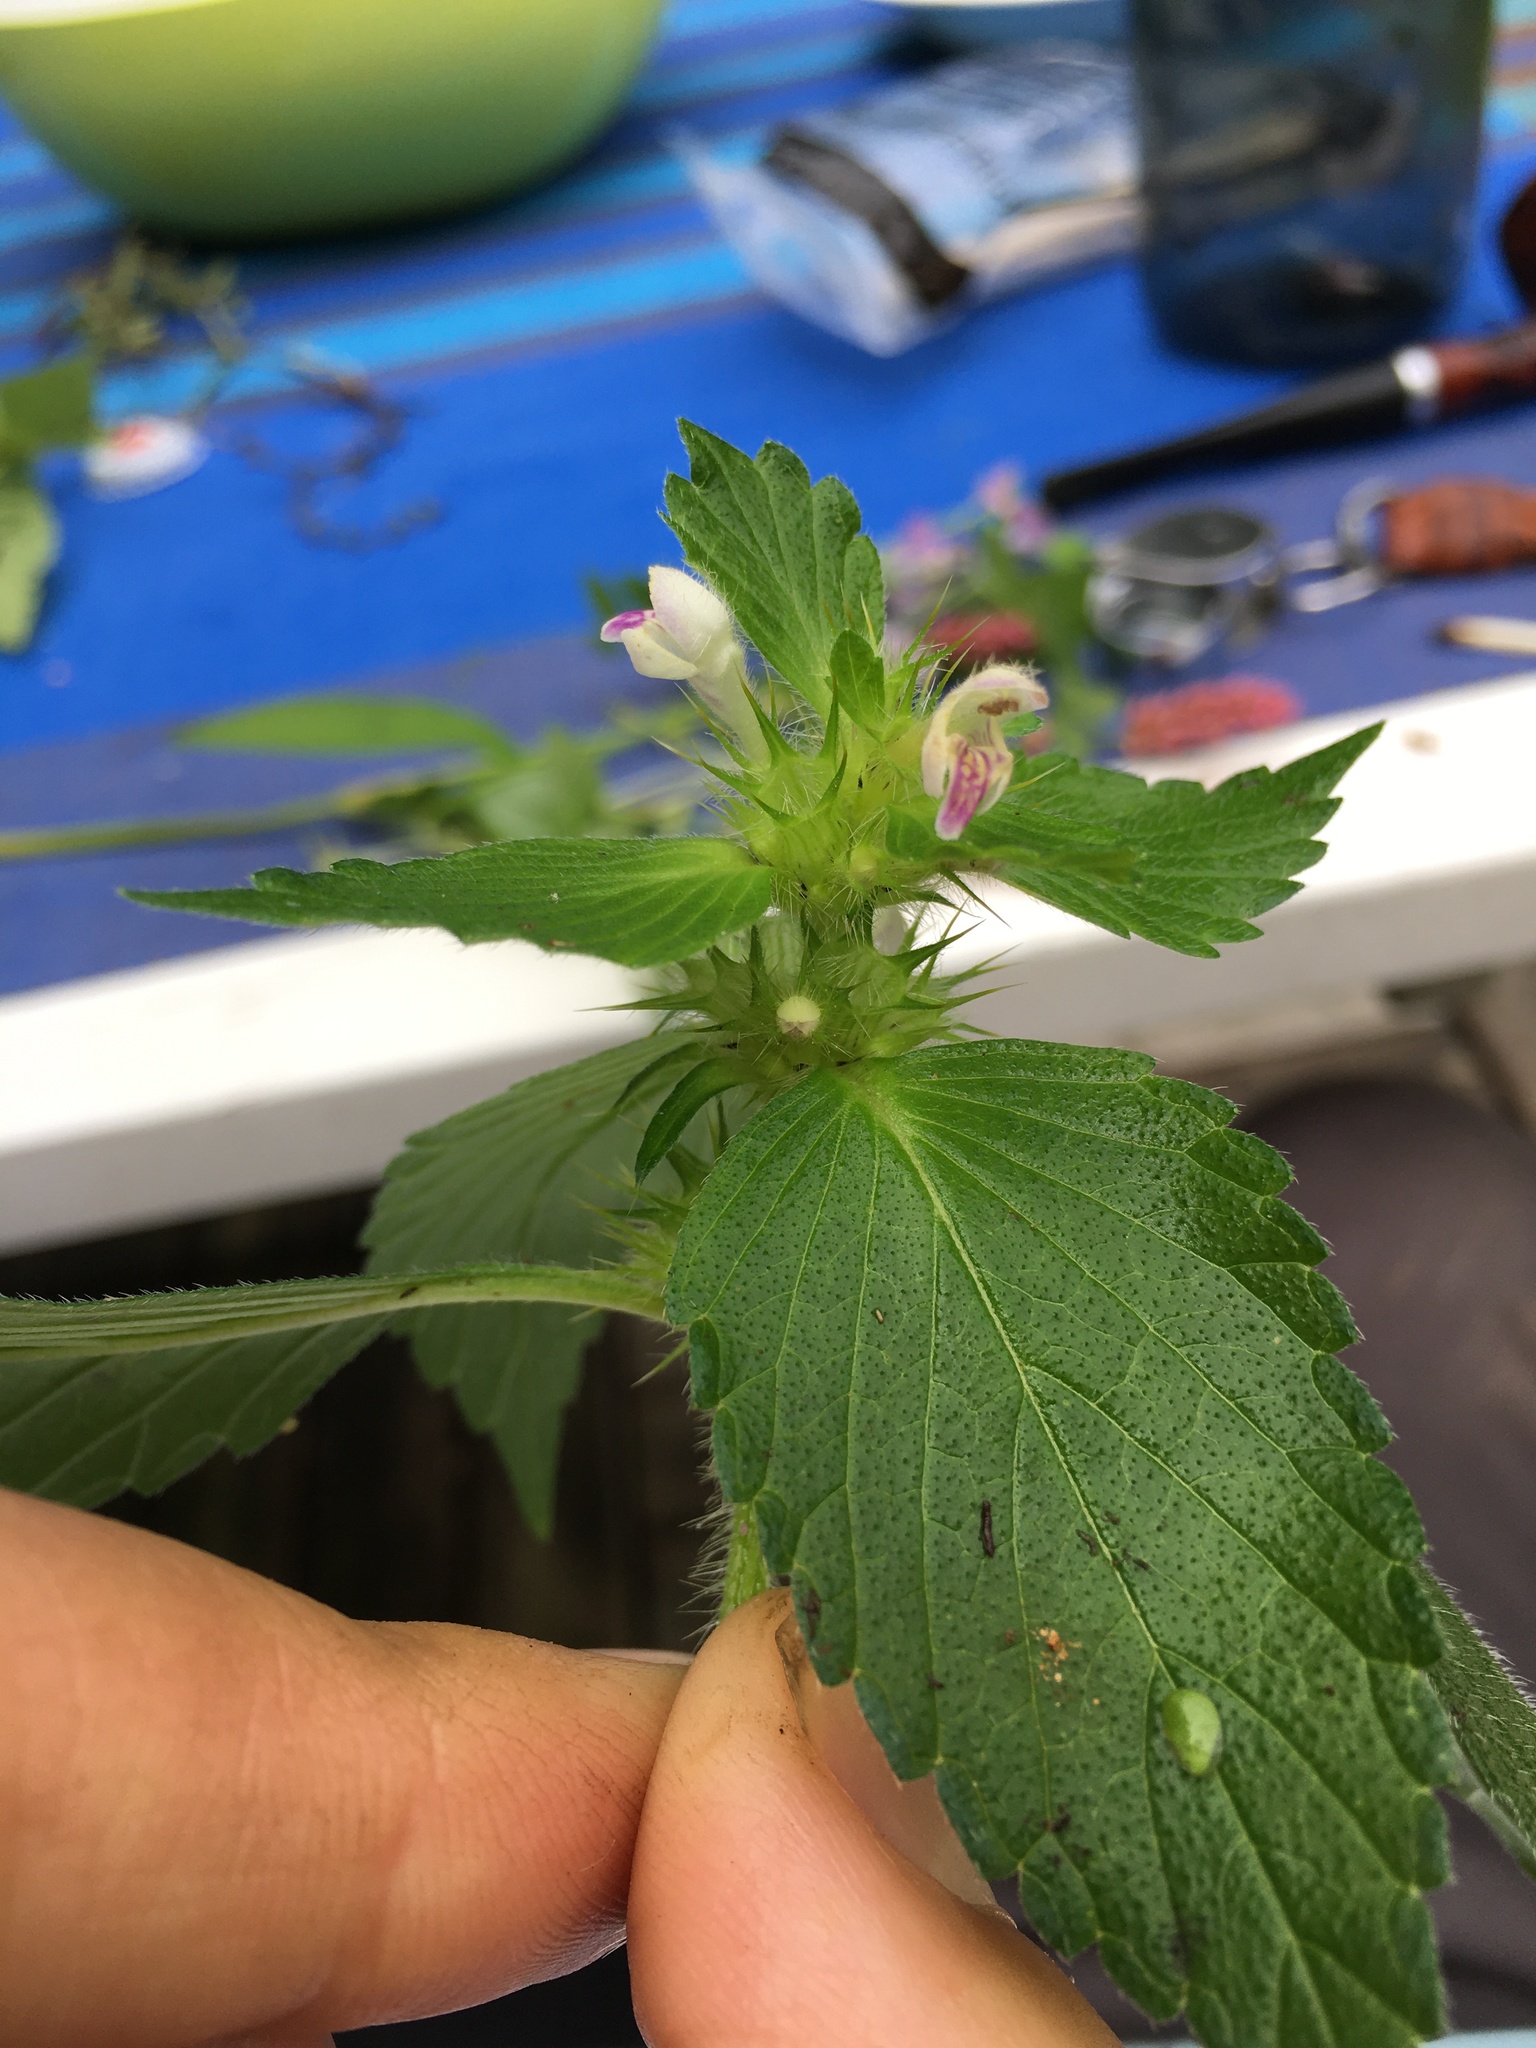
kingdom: Plantae
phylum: Tracheophyta
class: Magnoliopsida
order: Lamiales
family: Lamiaceae
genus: Galeopsis
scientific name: Galeopsis bifida
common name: Bifid hemp-nettle
